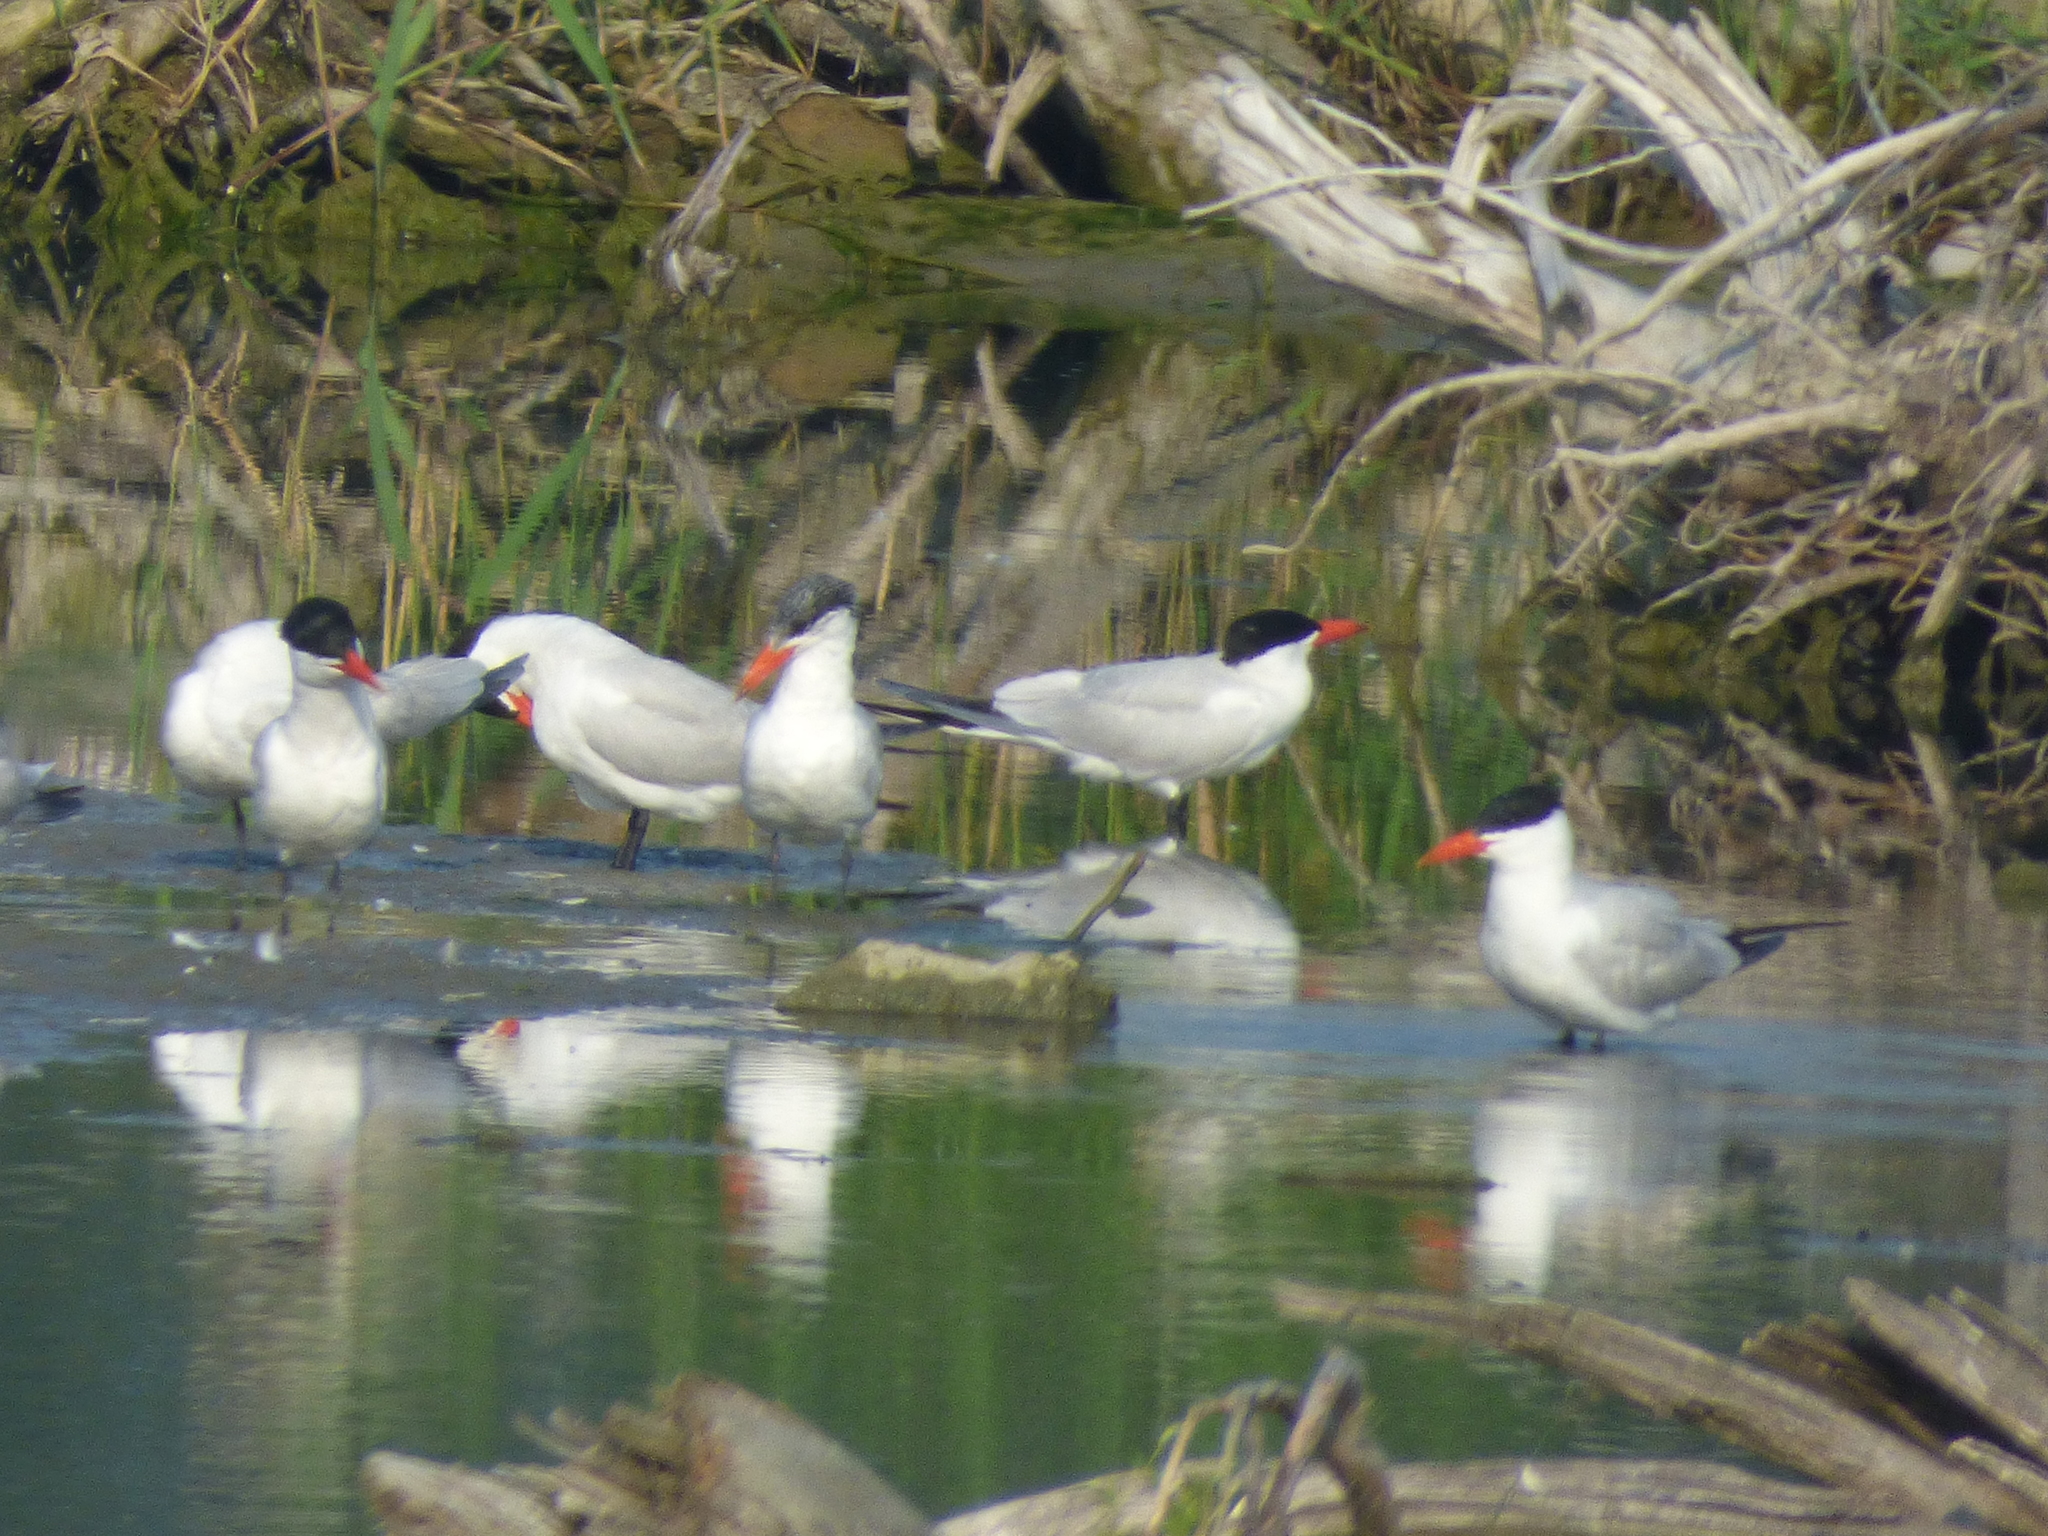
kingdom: Animalia
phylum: Chordata
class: Aves
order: Charadriiformes
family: Laridae
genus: Hydroprogne
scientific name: Hydroprogne caspia
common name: Caspian tern
